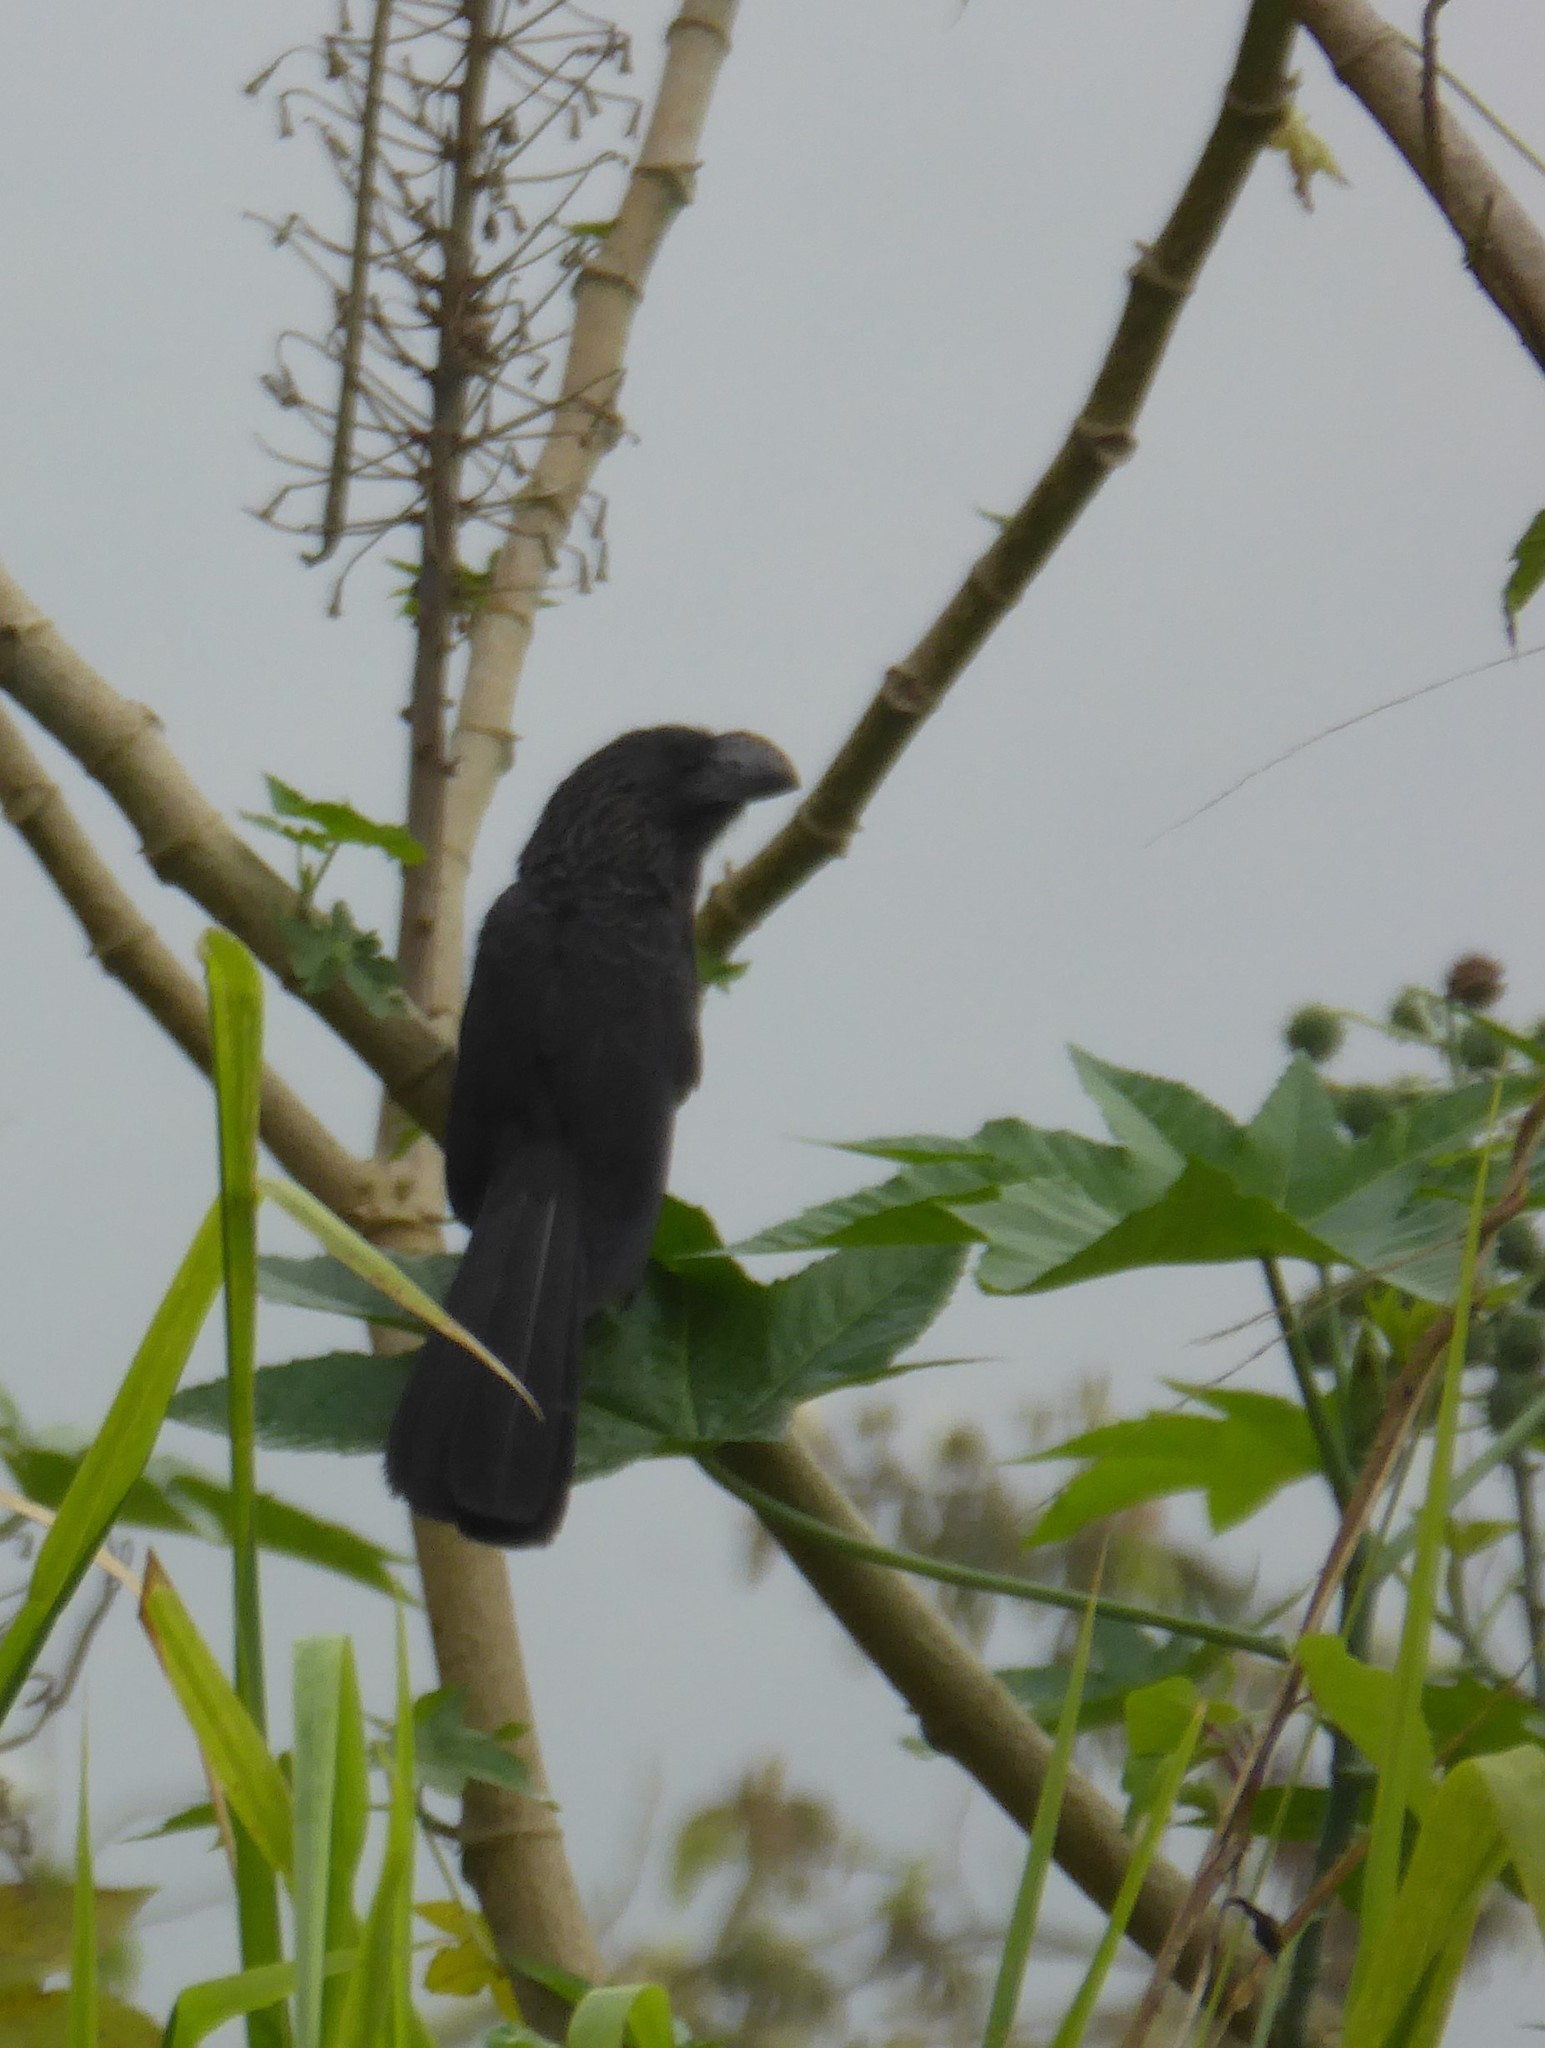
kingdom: Animalia
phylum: Chordata
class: Aves
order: Cuculiformes
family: Cuculidae
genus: Crotophaga
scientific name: Crotophaga ani
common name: Smooth-billed ani
